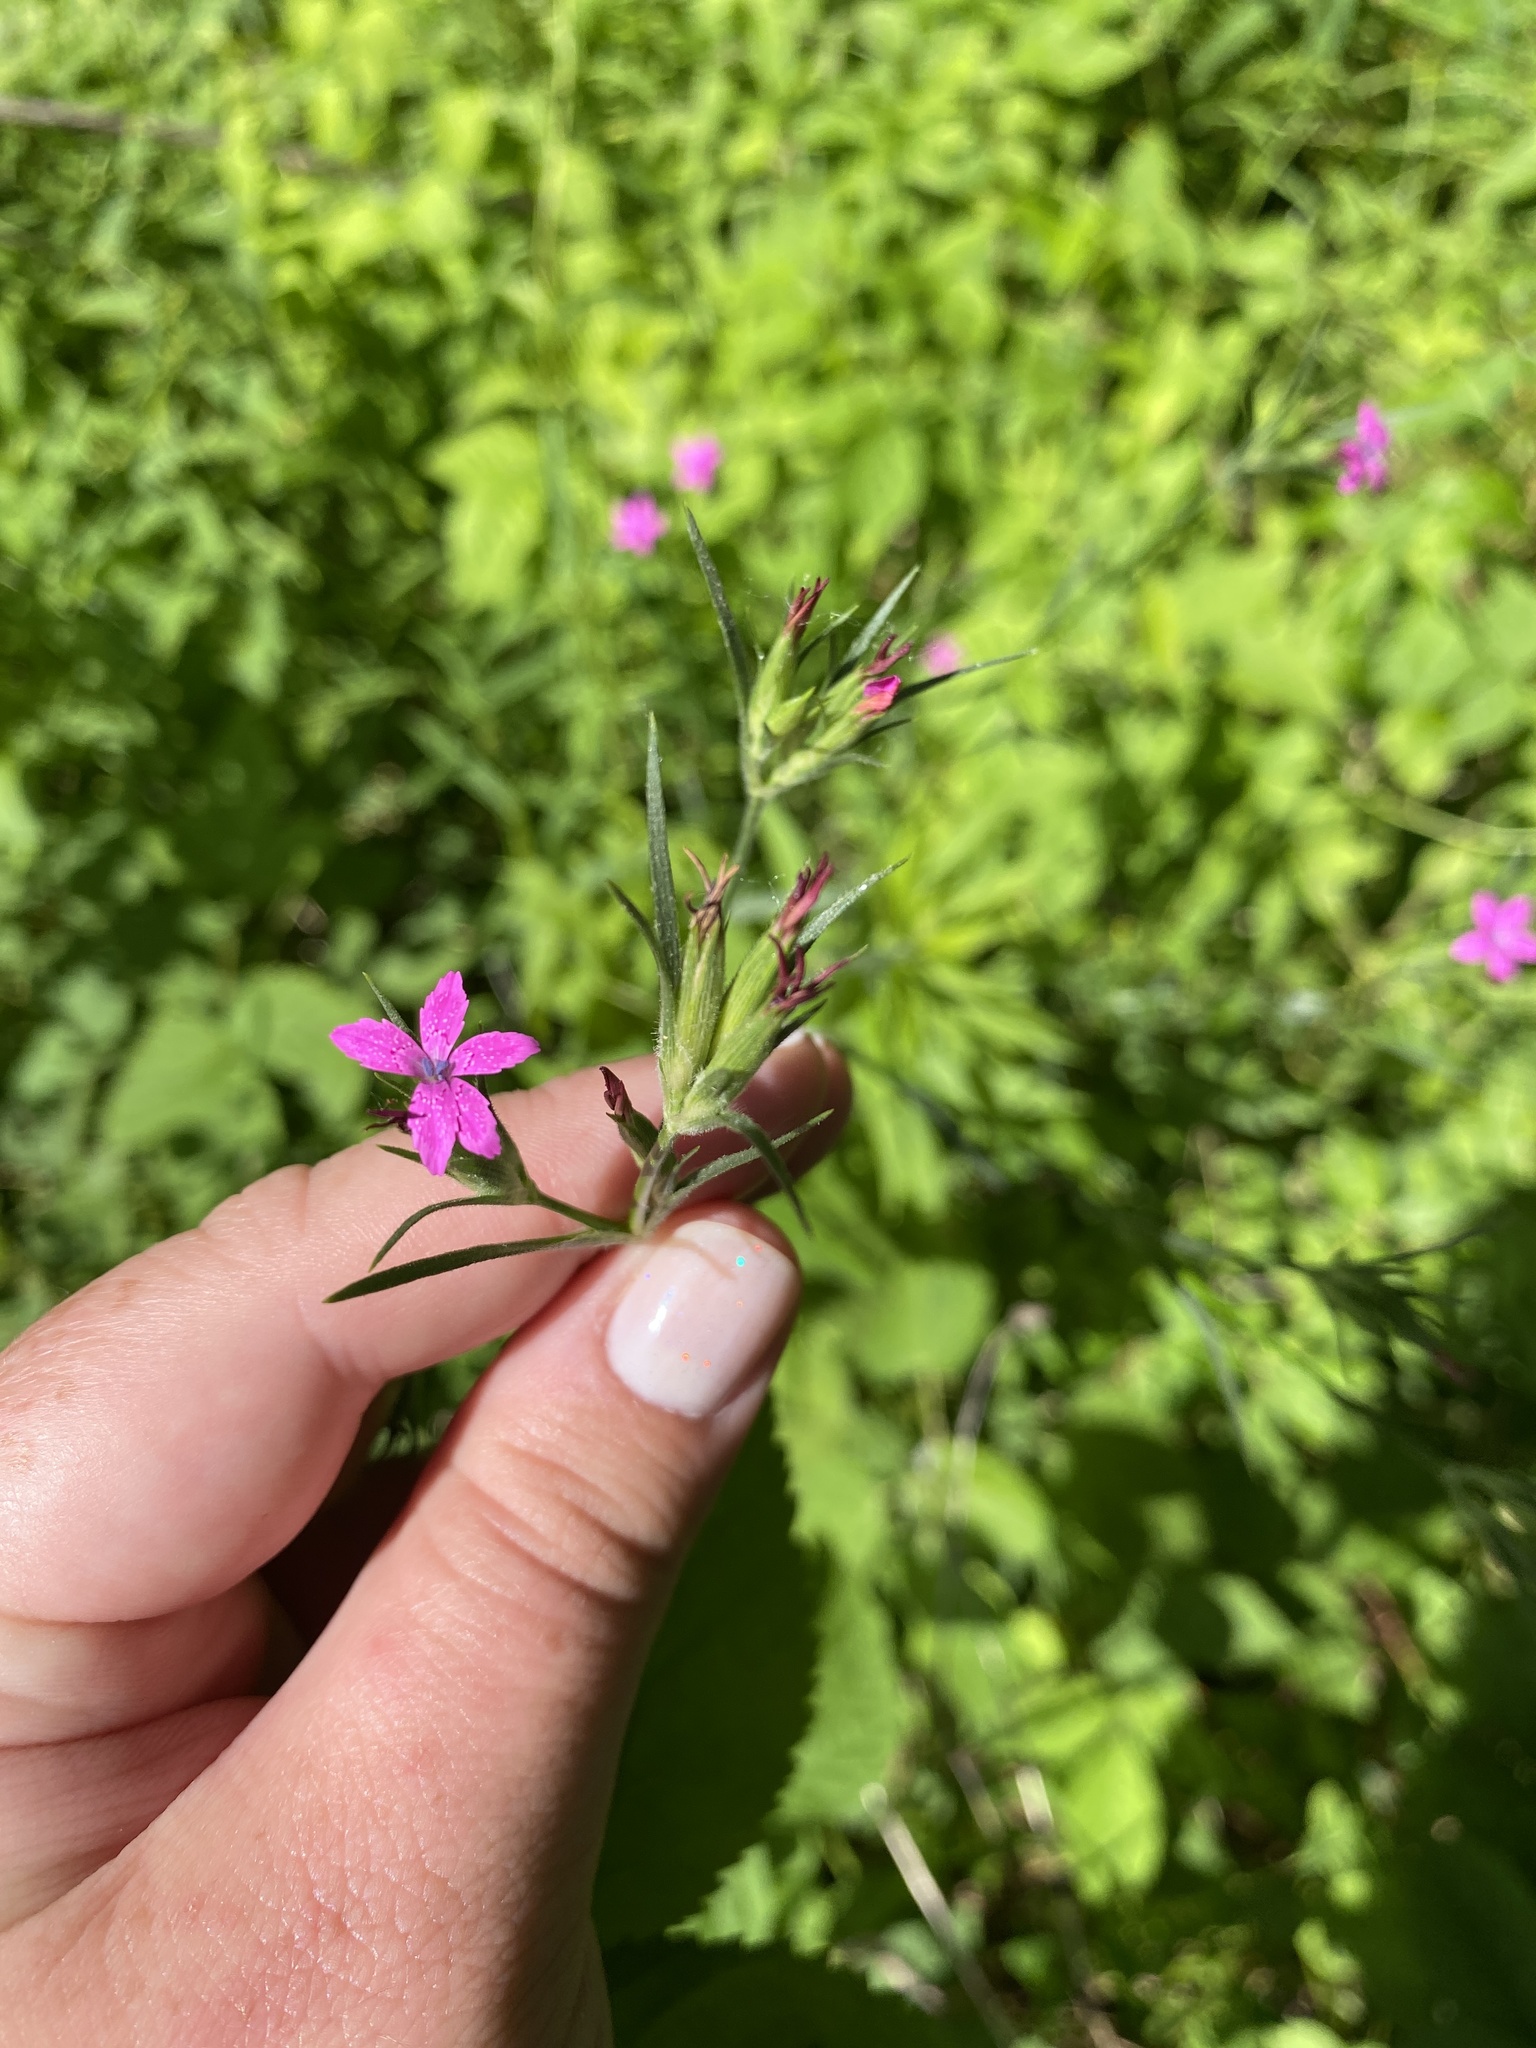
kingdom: Plantae
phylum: Tracheophyta
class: Magnoliopsida
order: Caryophyllales
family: Caryophyllaceae
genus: Dianthus
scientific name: Dianthus armeria
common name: Deptford pink
